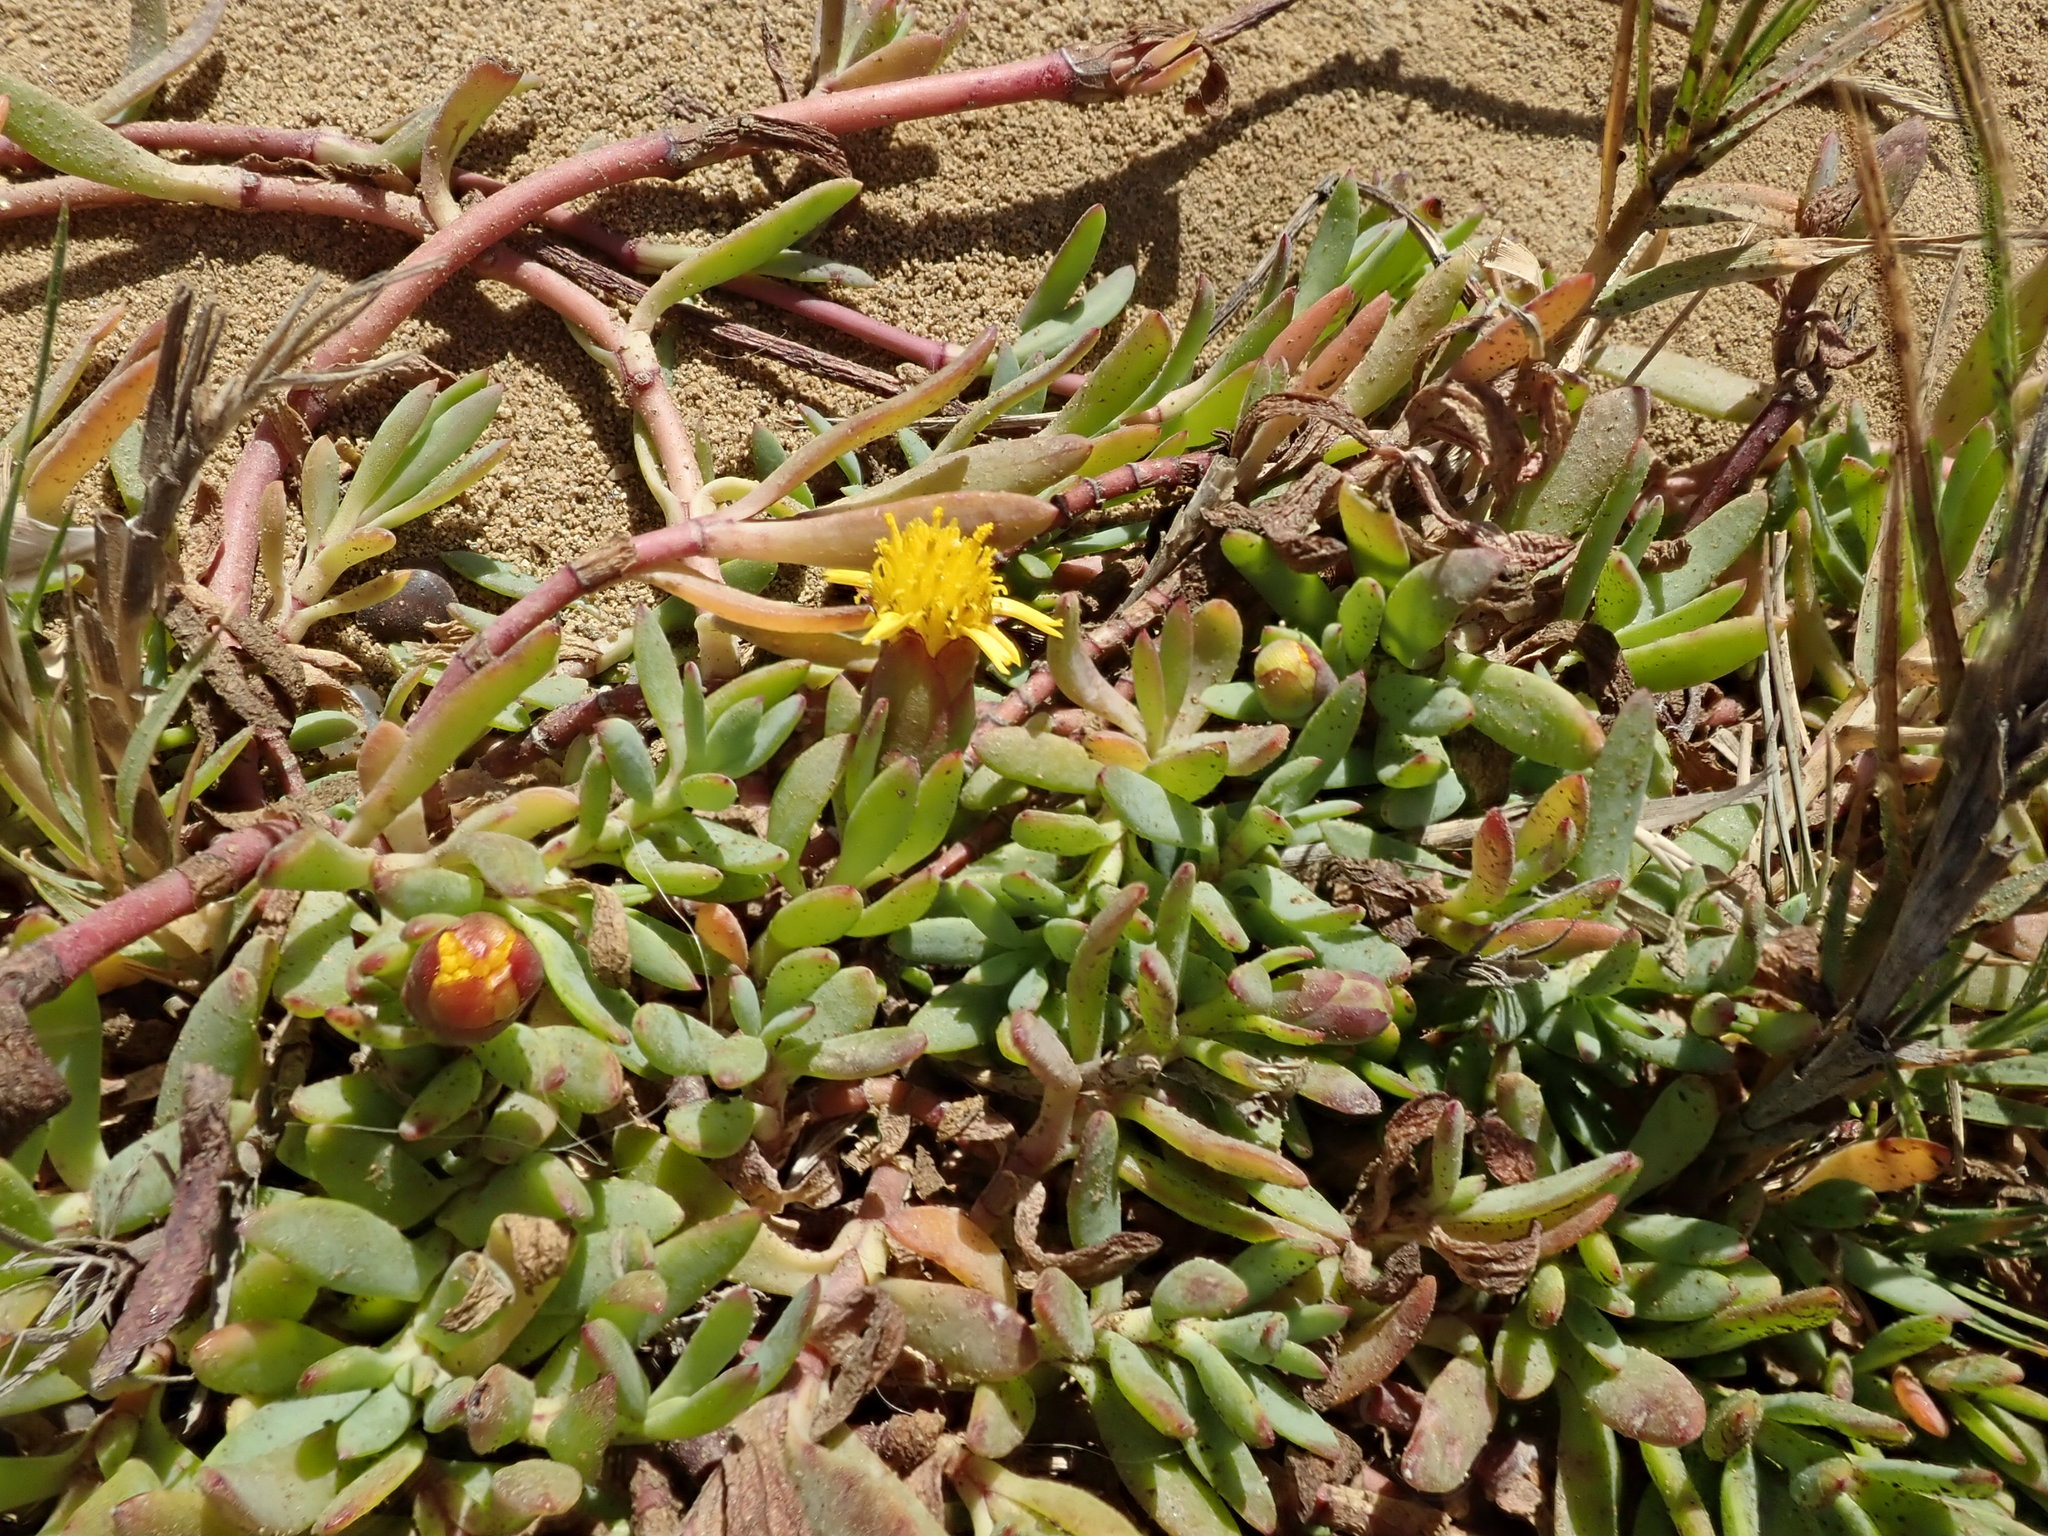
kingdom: Plantae
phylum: Tracheophyta
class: Magnoliopsida
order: Asterales
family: Asteraceae
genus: Jaumea
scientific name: Jaumea carnosa
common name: Fleshy jaumea
